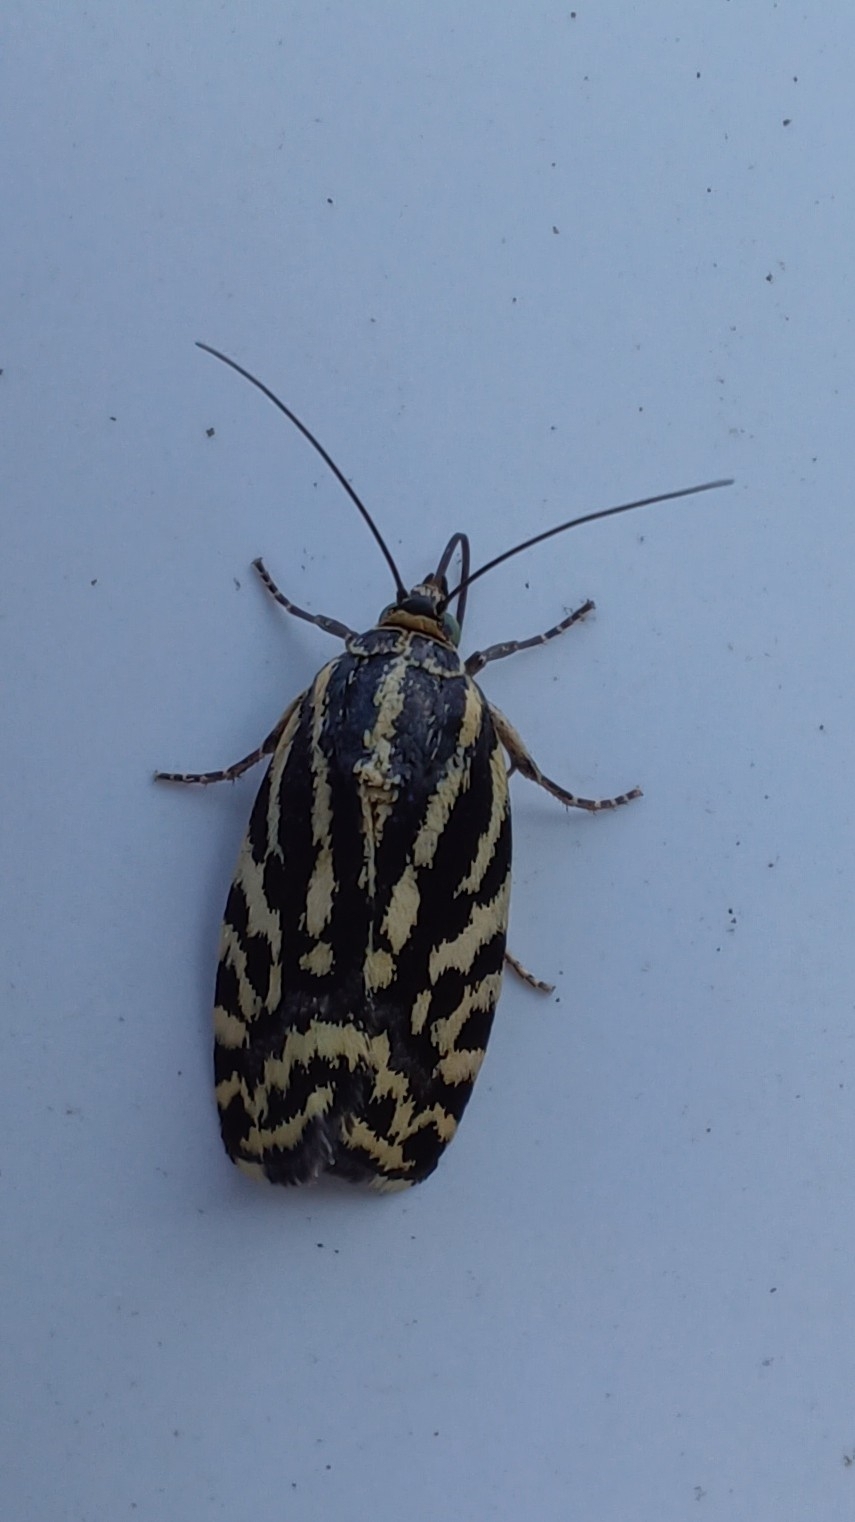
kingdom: Animalia
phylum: Arthropoda
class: Insecta
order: Lepidoptera
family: Noctuidae
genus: Acontia
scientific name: Acontia trabealis
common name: Spotted sulphur
